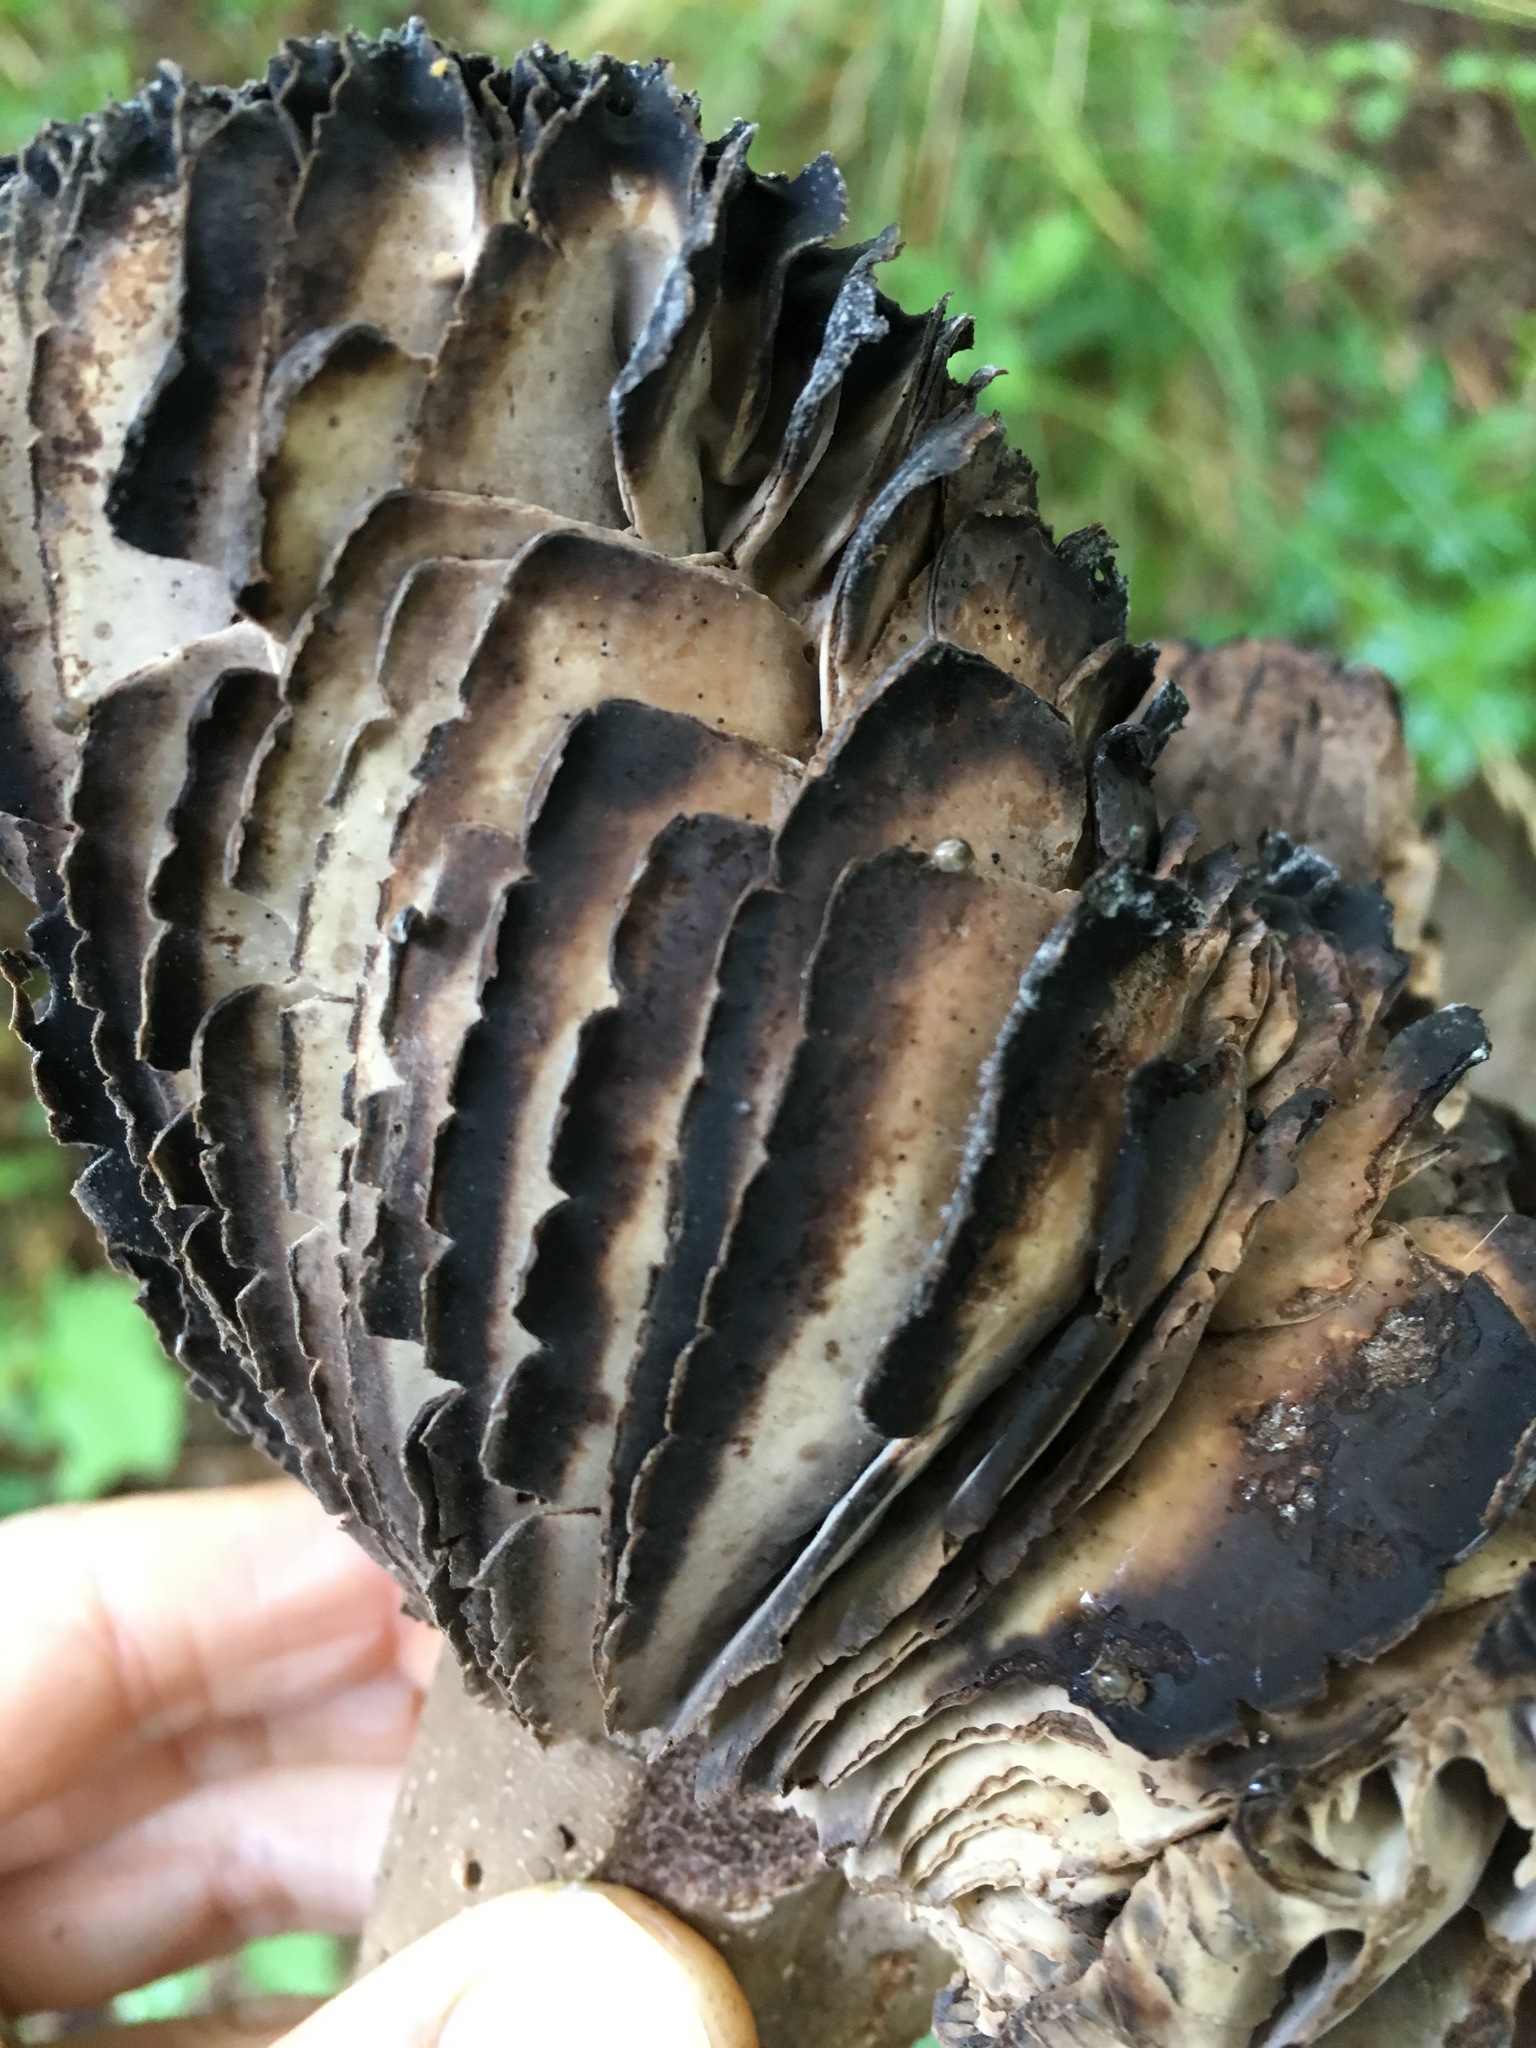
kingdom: Fungi
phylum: Basidiomycota
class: Agaricomycetes
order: Russulales
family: Russulaceae
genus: Russula
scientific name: Russula adusta
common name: Winecork brittlegill
